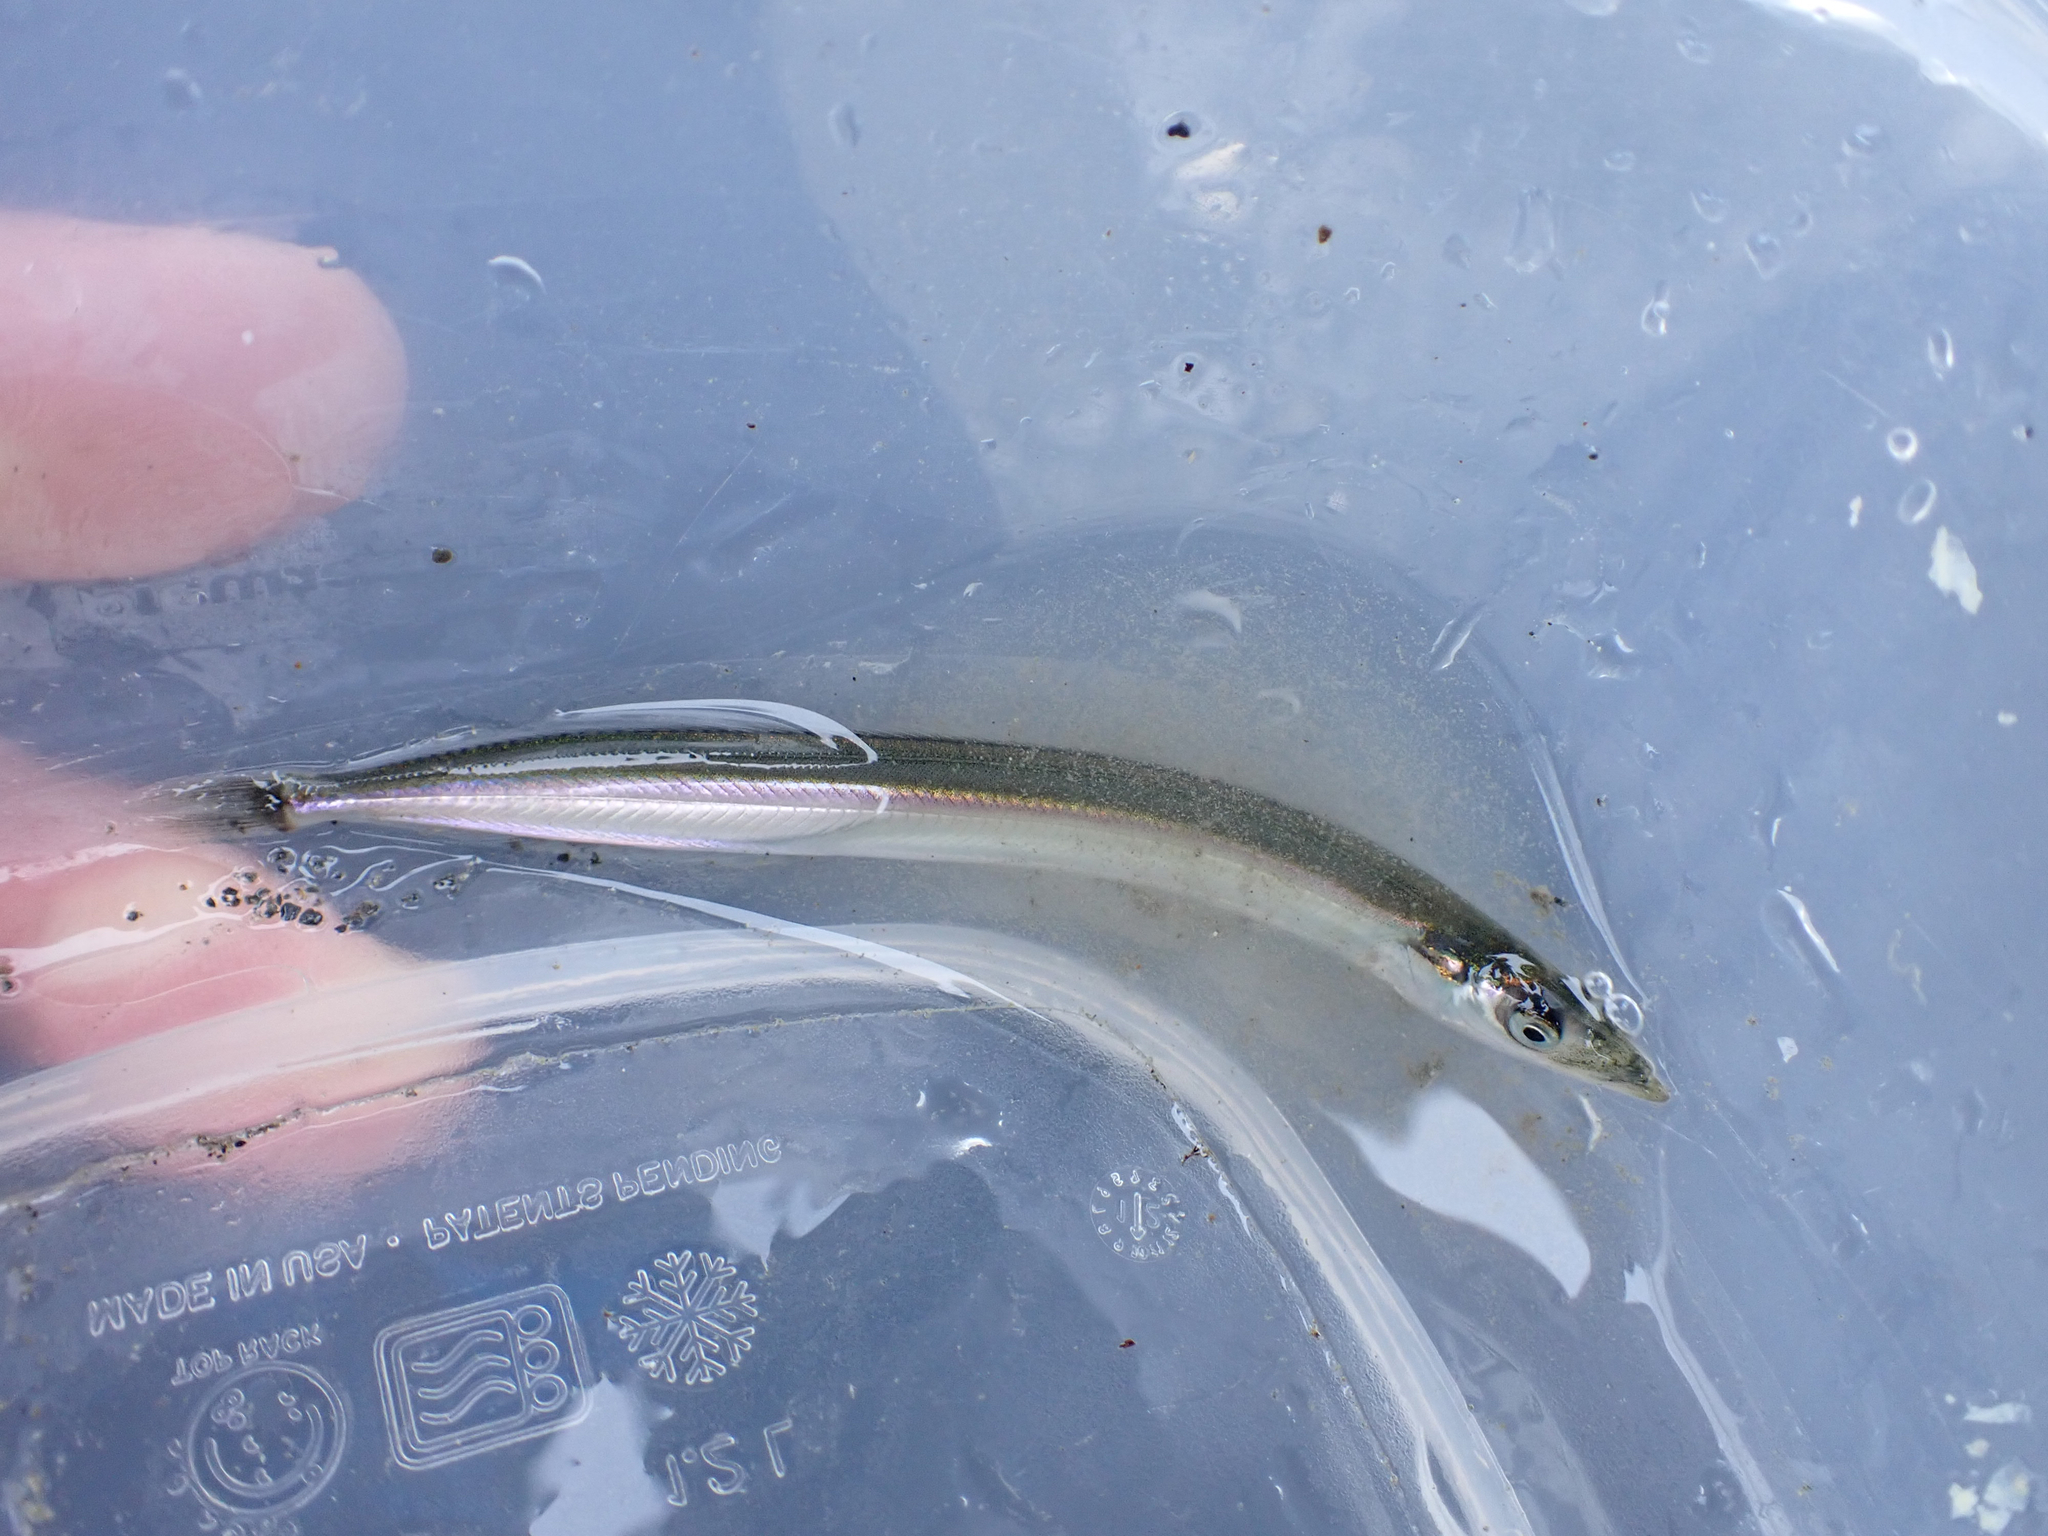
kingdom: Animalia
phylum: Chordata
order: Perciformes
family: Ammodytidae
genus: Ammodytes
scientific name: Ammodytes personatus
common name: Japanese sand lance
